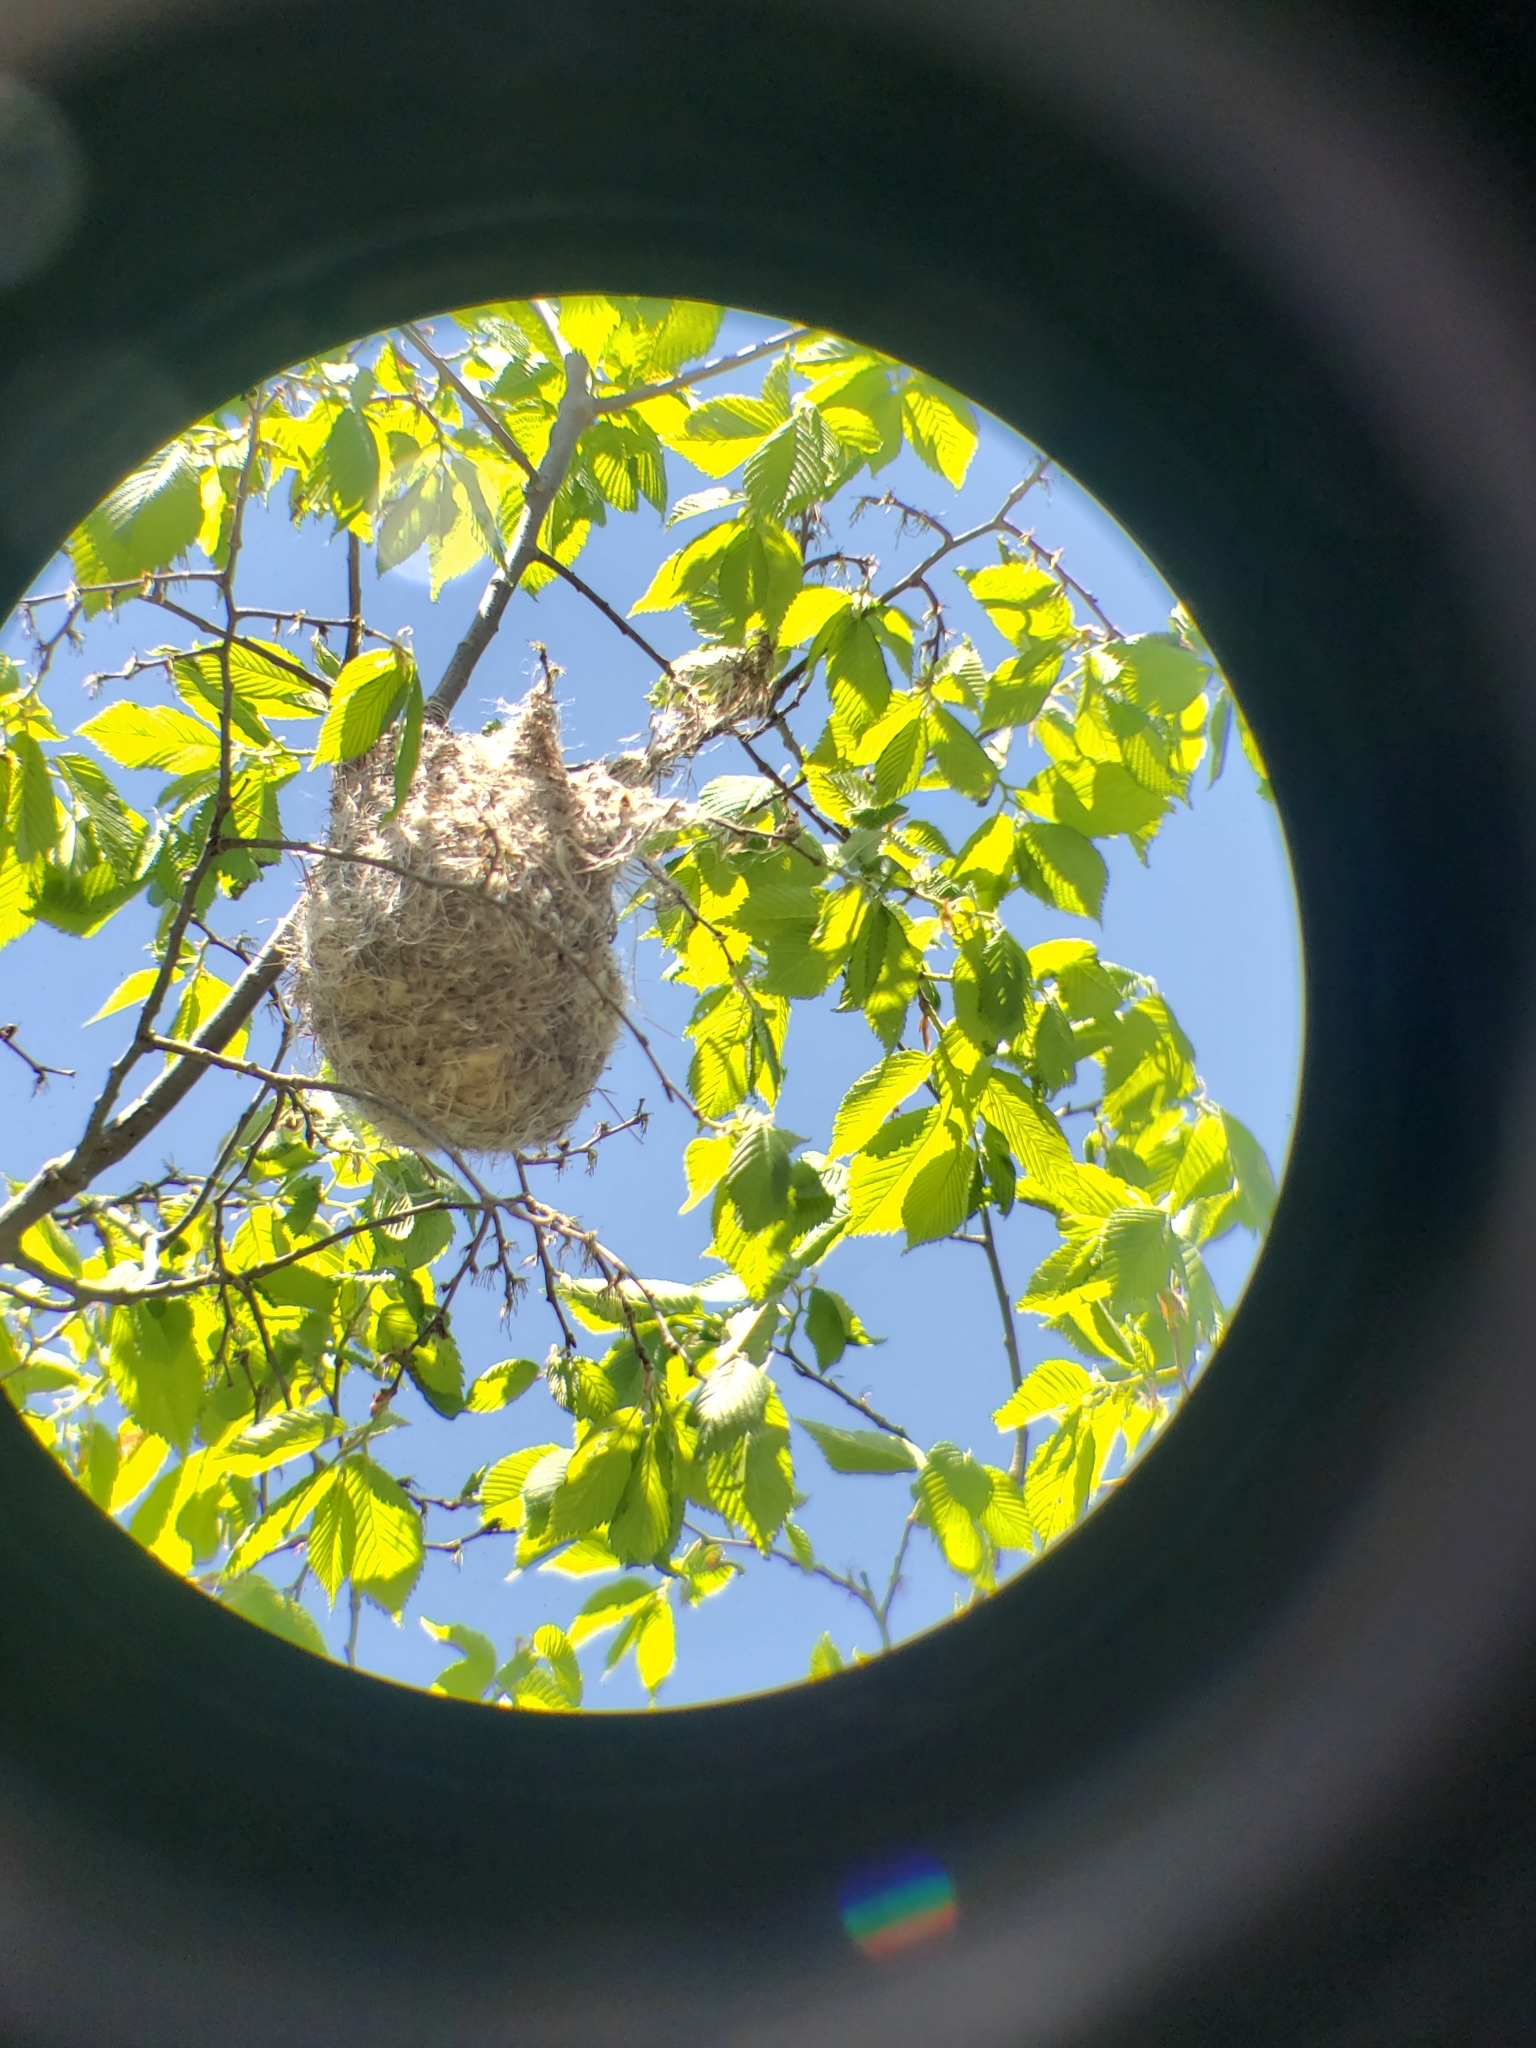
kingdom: Animalia
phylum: Chordata
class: Aves
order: Passeriformes
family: Icteridae
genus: Icterus
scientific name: Icterus galbula
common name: Baltimore oriole
